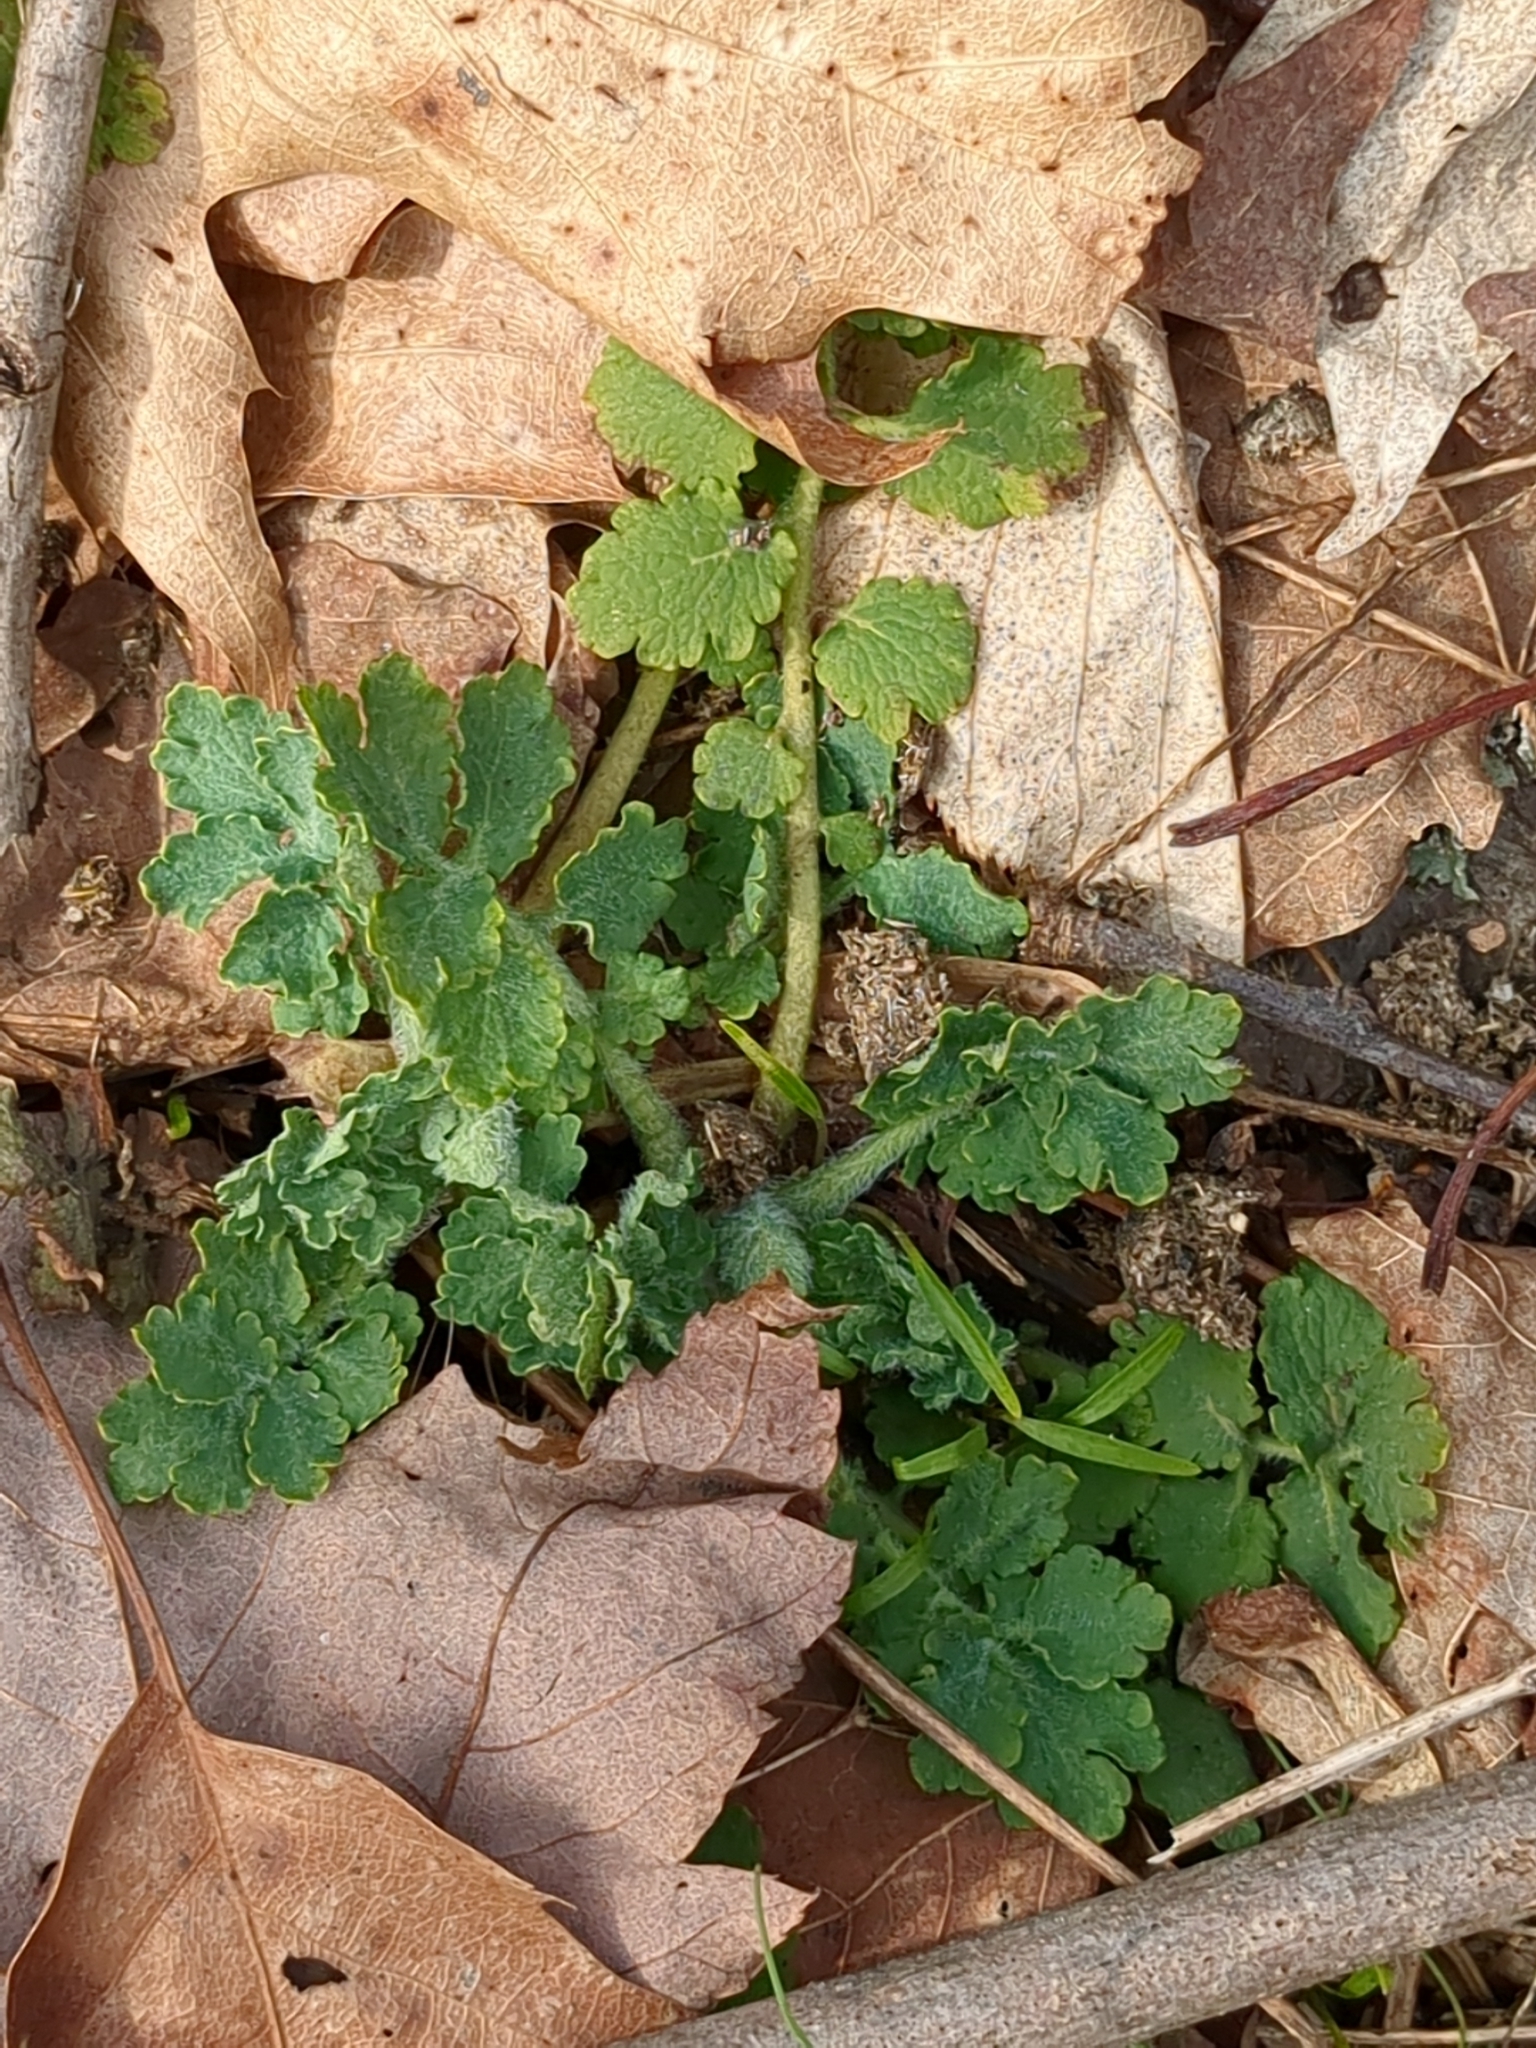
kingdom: Plantae
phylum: Tracheophyta
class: Magnoliopsida
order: Ranunculales
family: Papaveraceae
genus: Chelidonium
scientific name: Chelidonium majus
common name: Greater celandine
